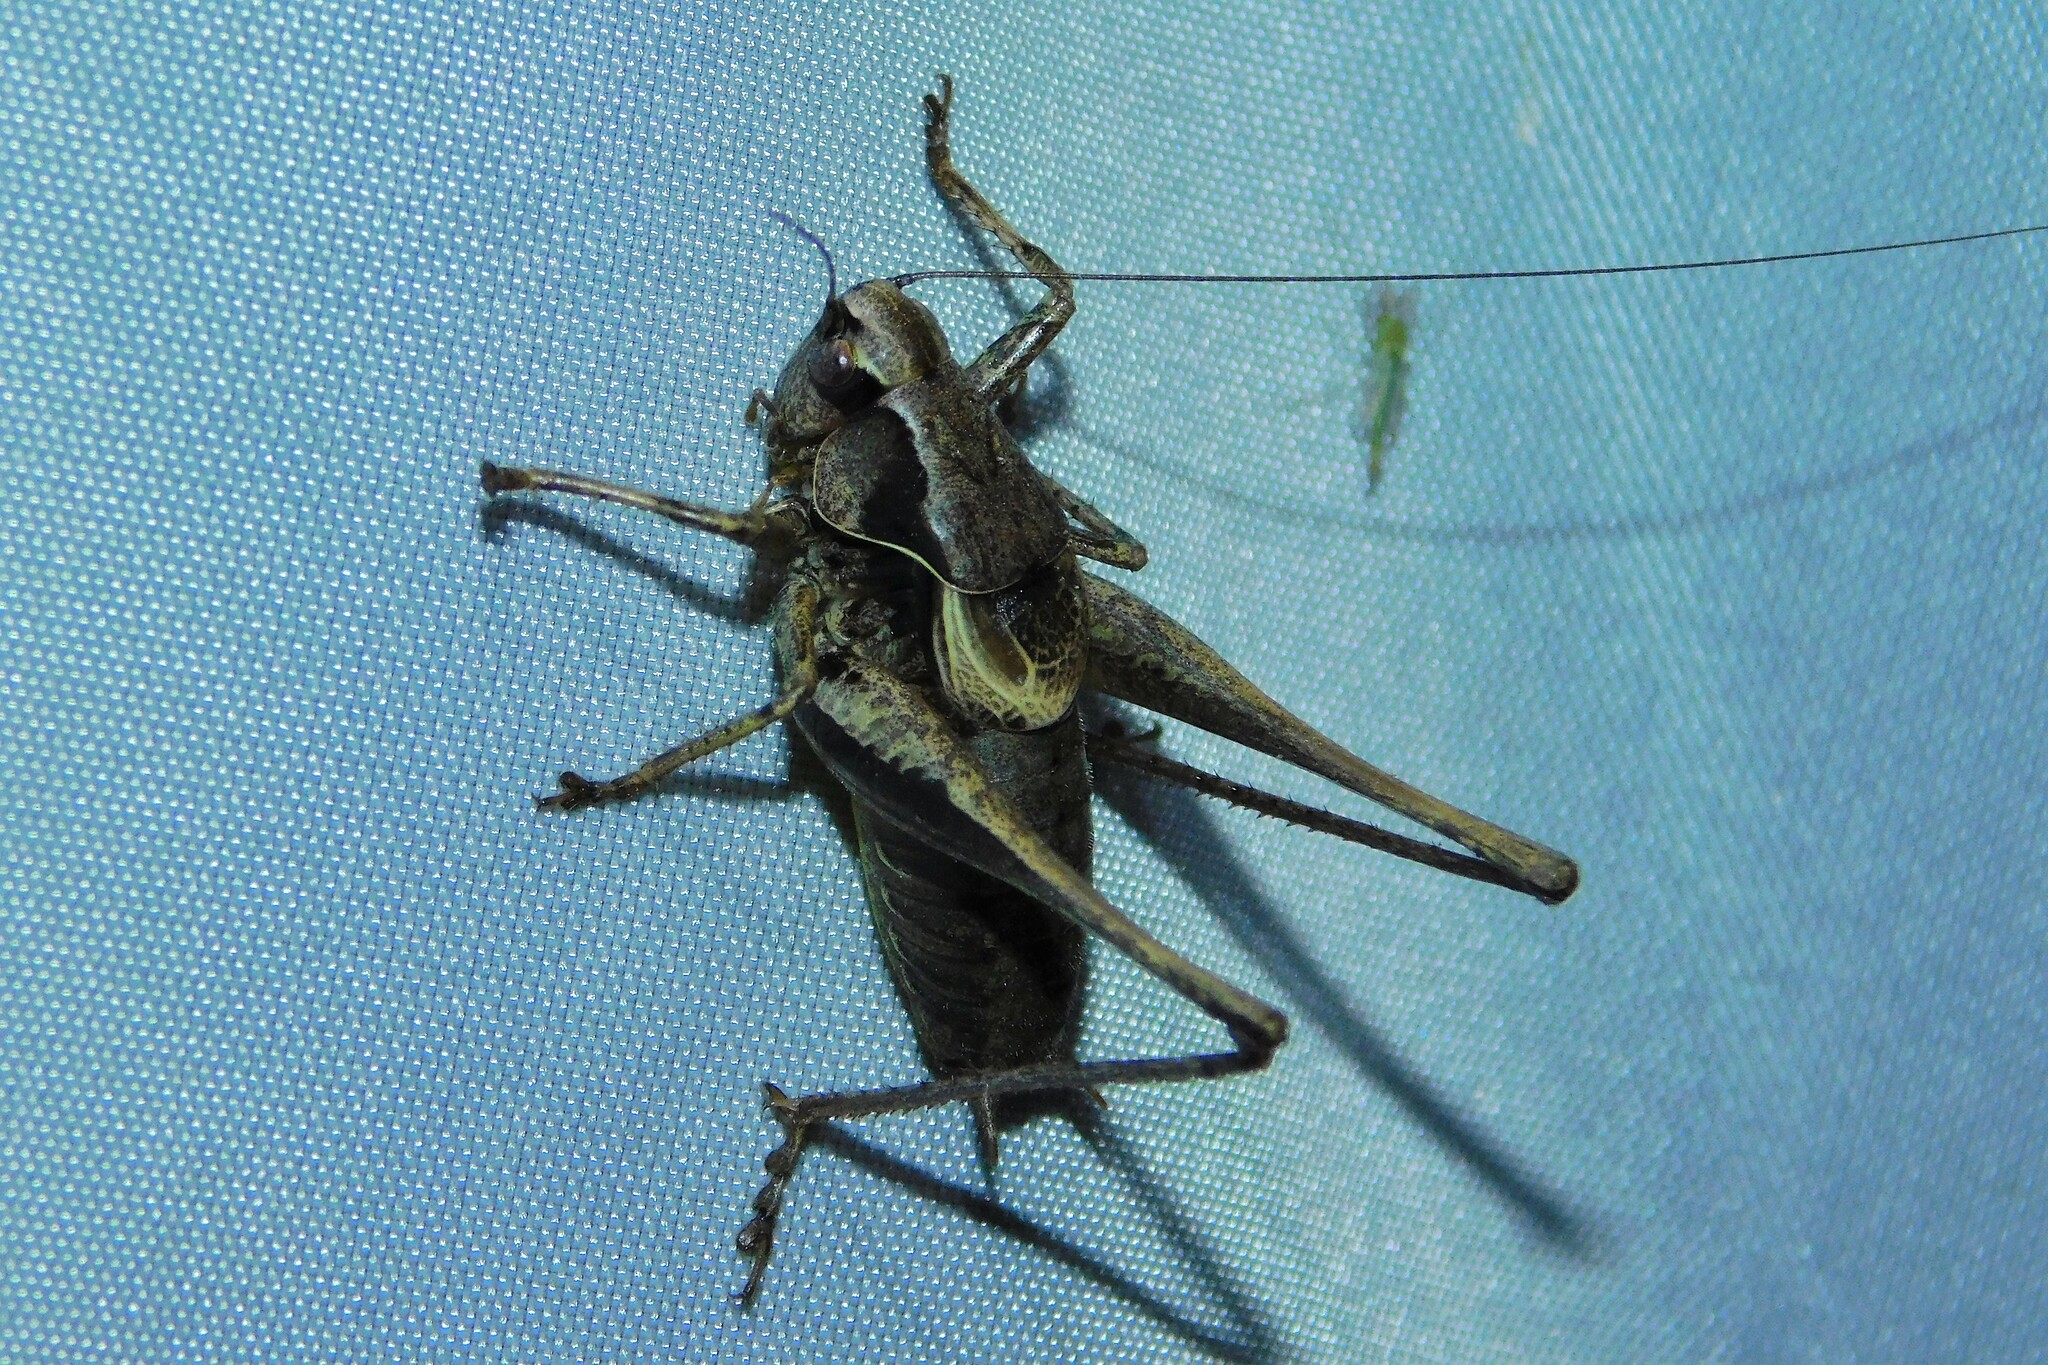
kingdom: Animalia
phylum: Arthropoda
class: Insecta
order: Orthoptera
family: Tettigoniidae
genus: Pholidoptera
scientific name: Pholidoptera griseoaptera
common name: Dark bush-cricket
